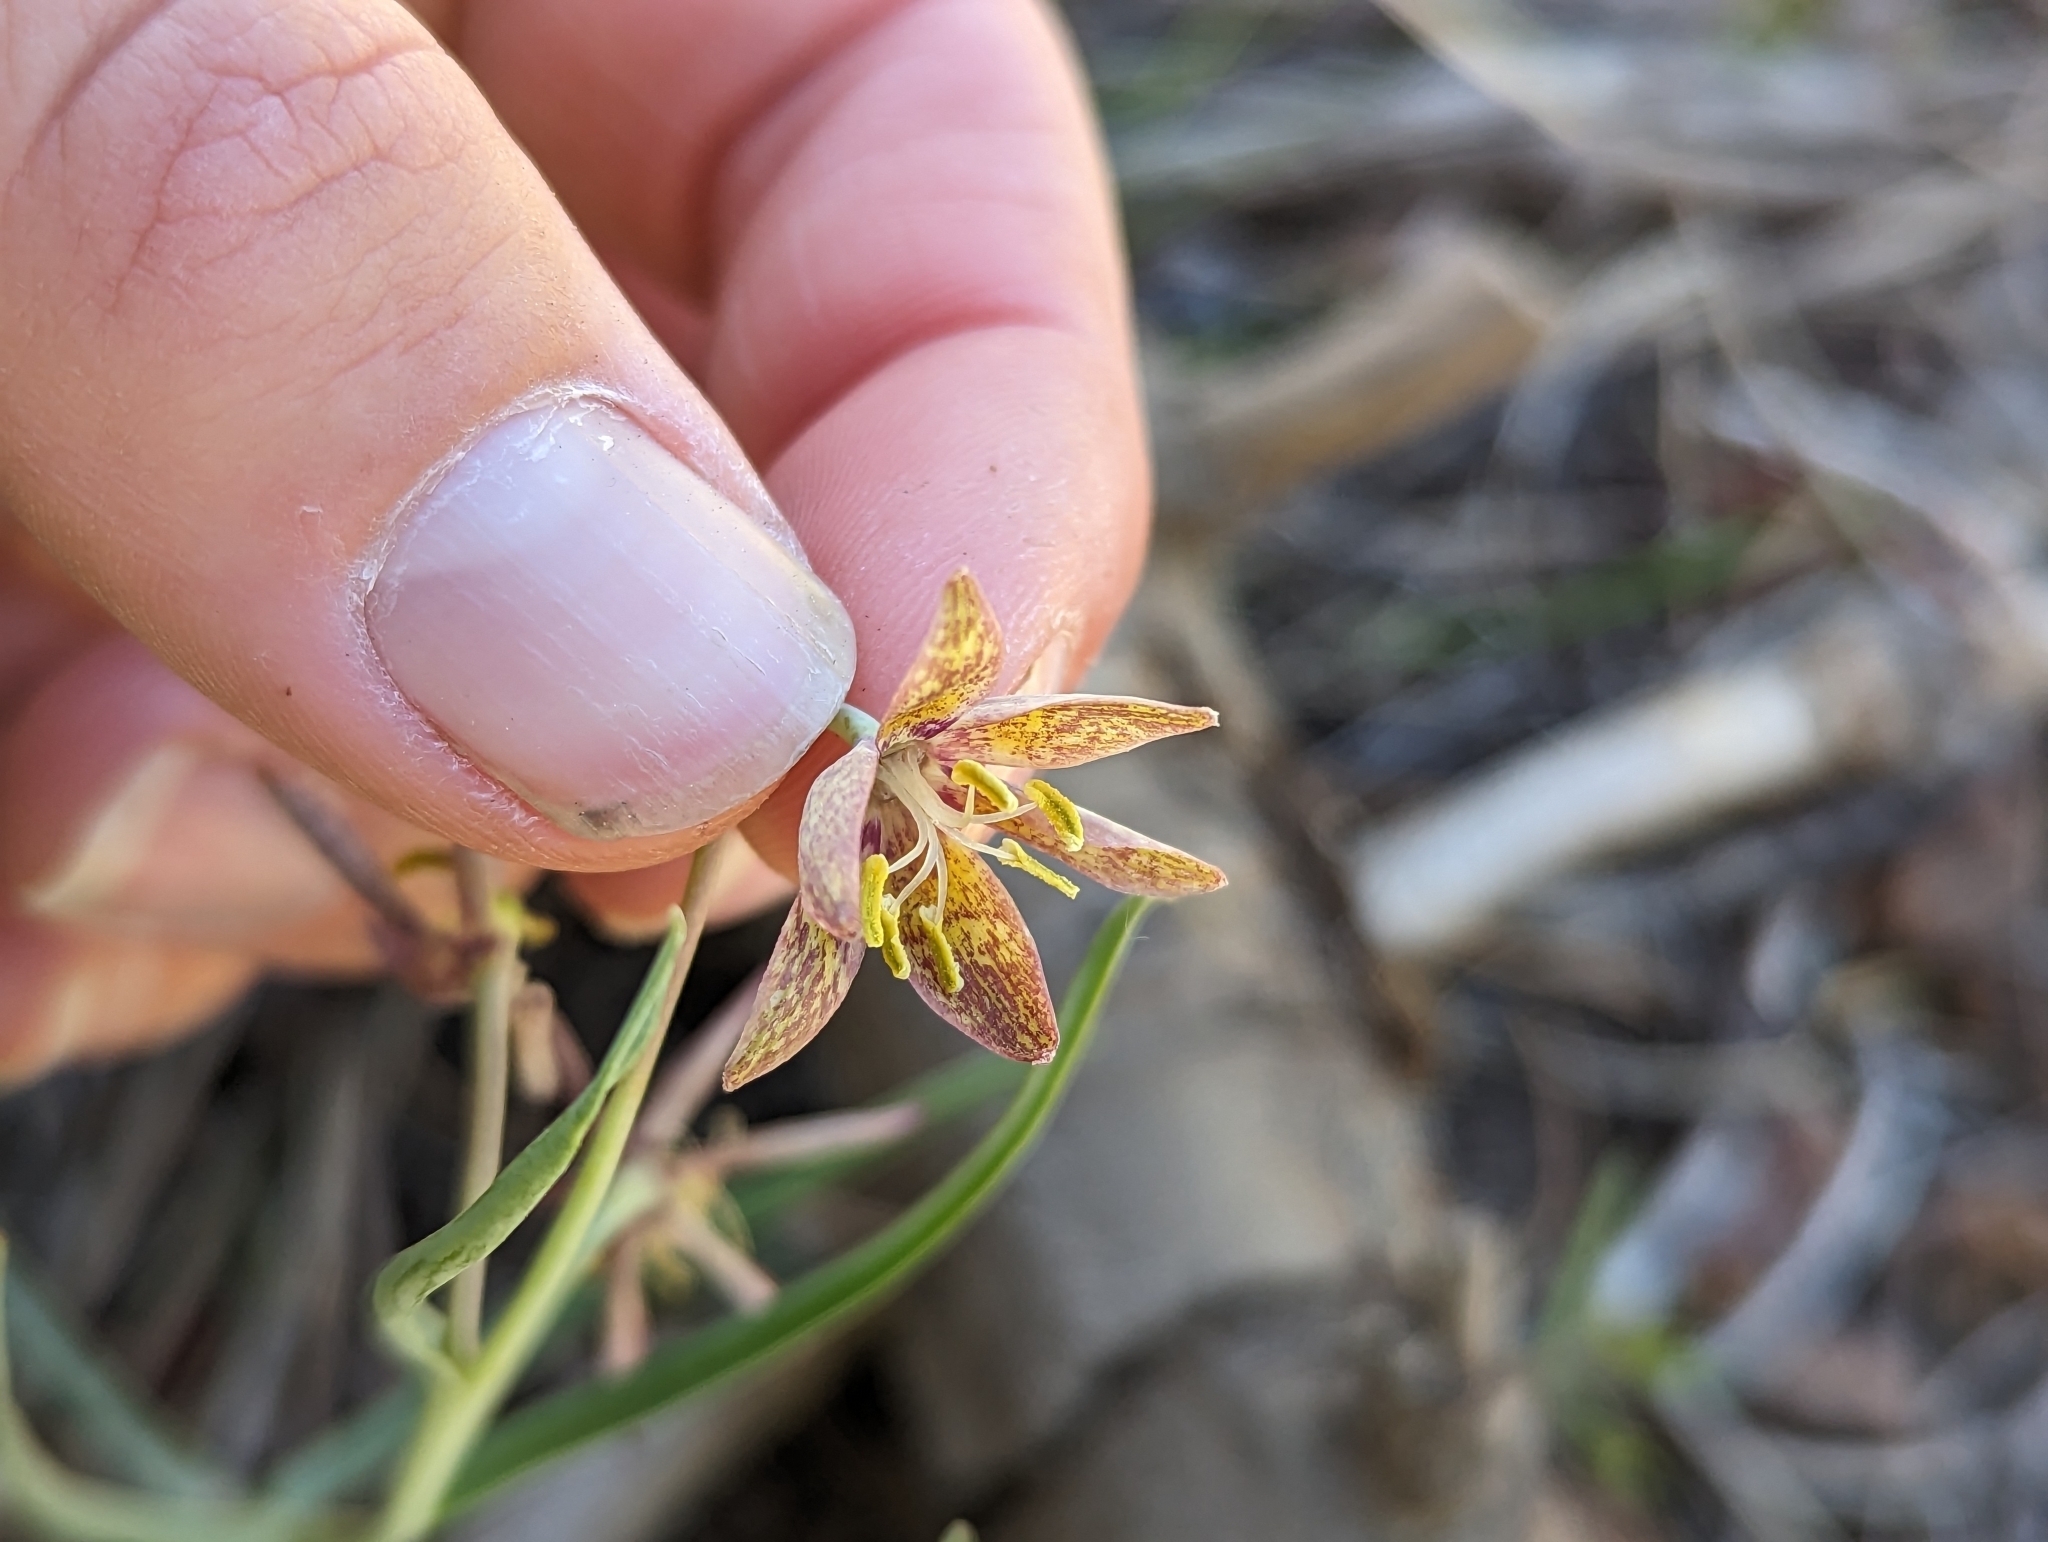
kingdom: Plantae
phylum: Tracheophyta
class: Liliopsida
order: Liliales
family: Liliaceae
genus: Fritillaria
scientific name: Fritillaria atropurpurea
